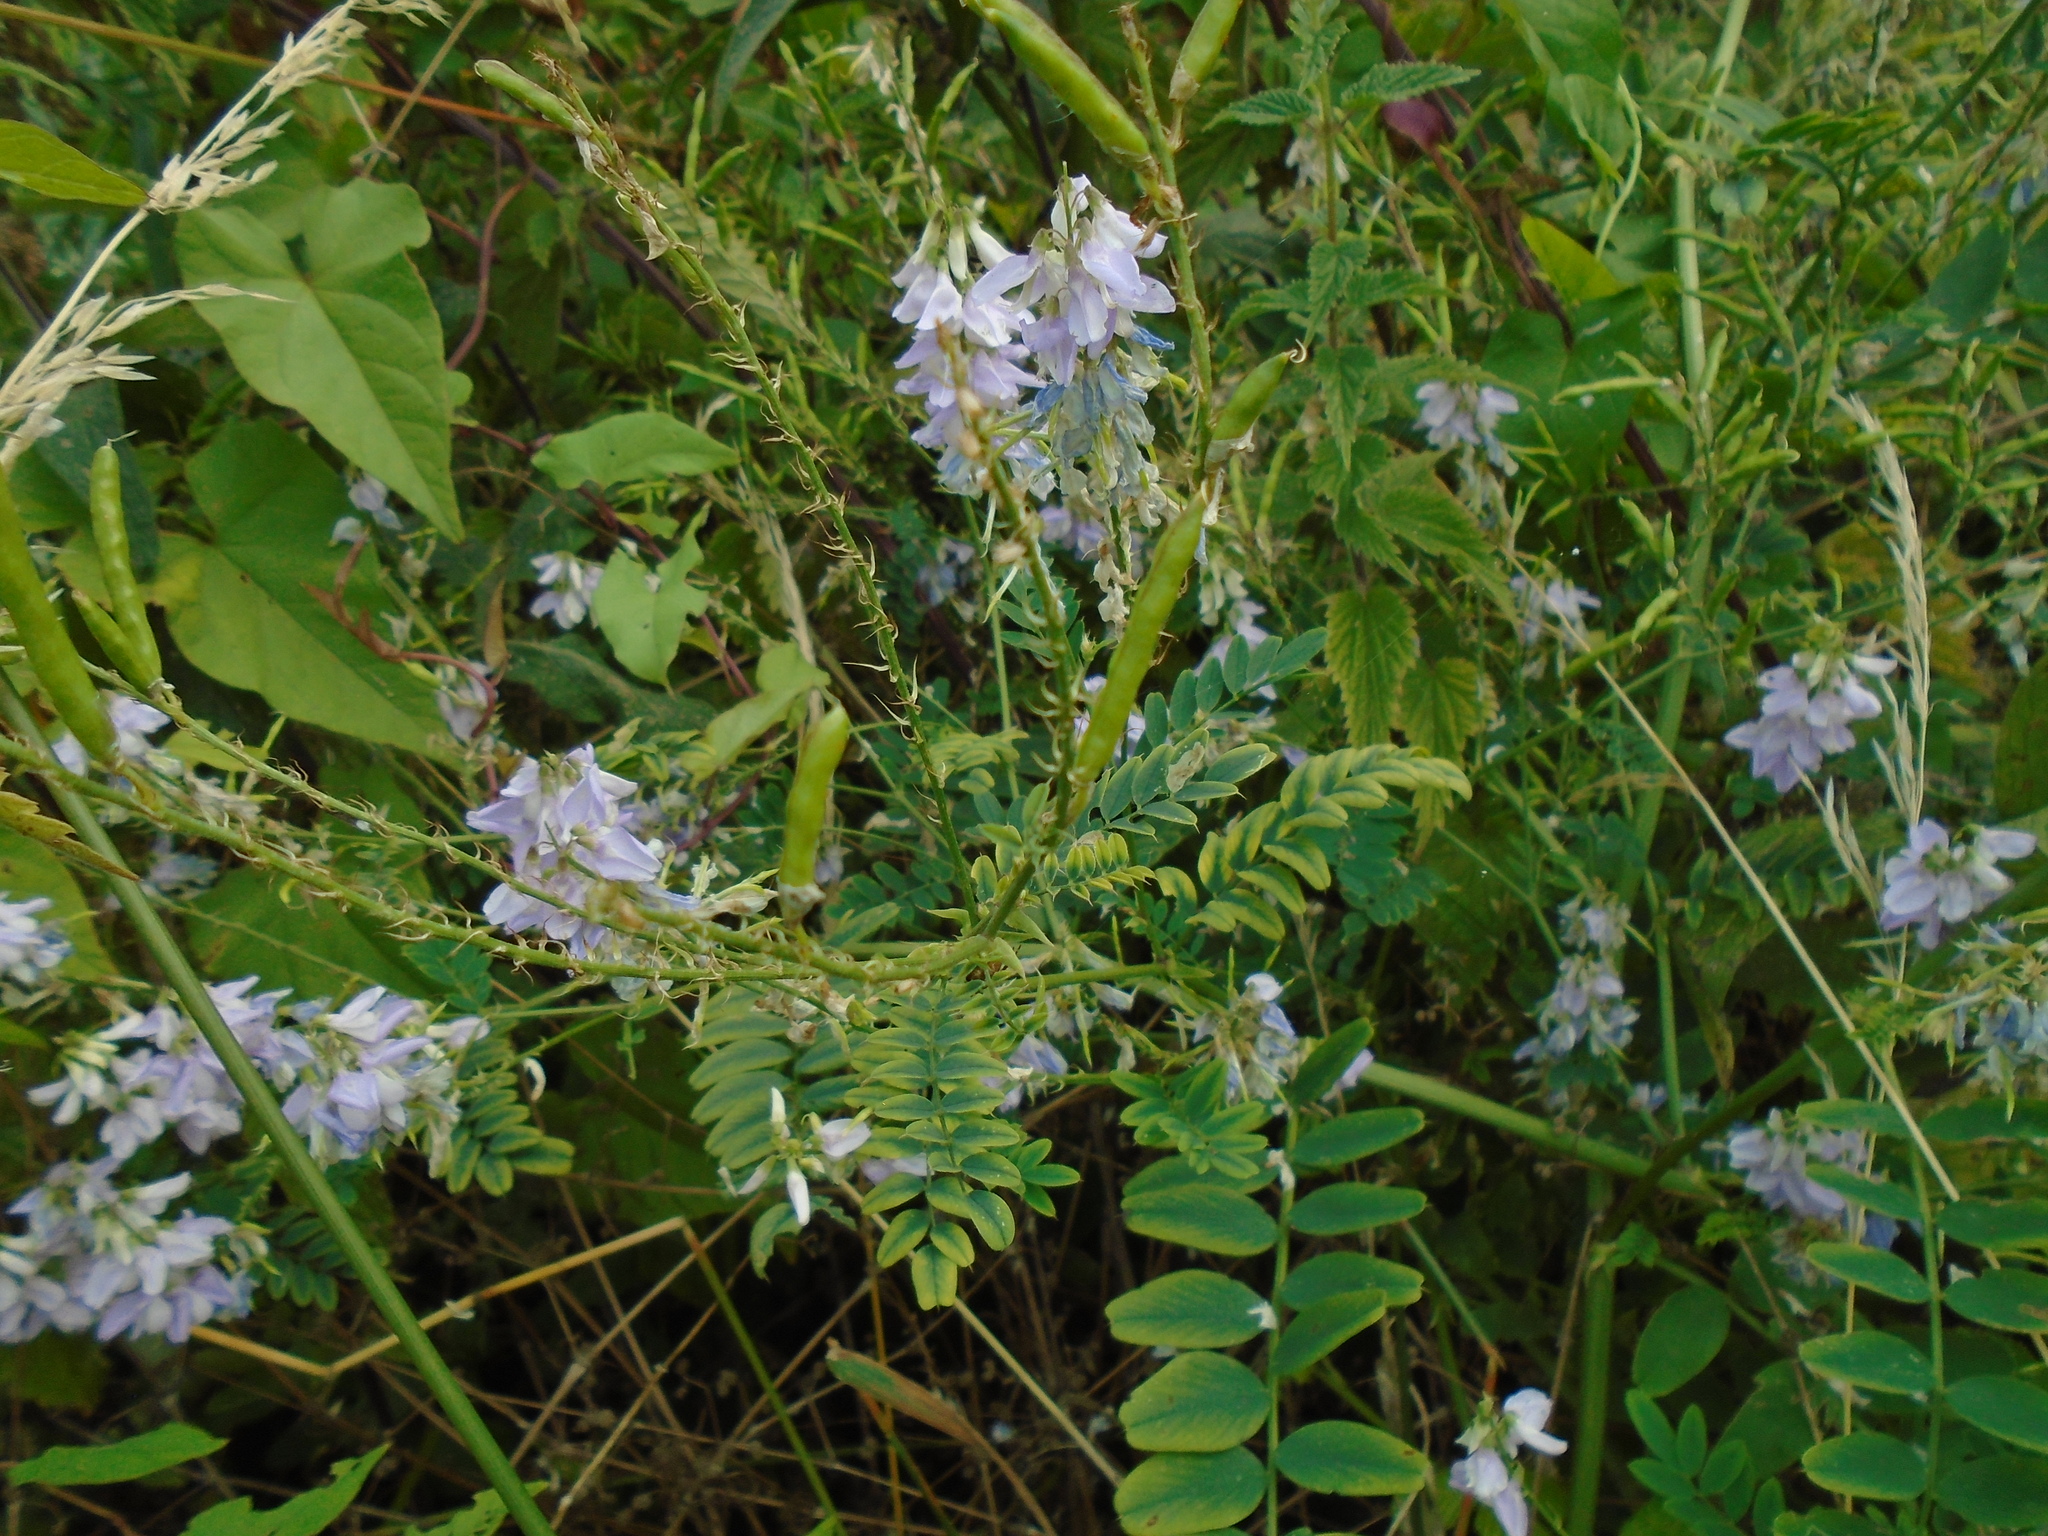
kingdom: Plantae
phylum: Tracheophyta
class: Magnoliopsida
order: Fabales
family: Fabaceae
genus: Galega
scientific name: Galega officinalis
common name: Goat's-rue
